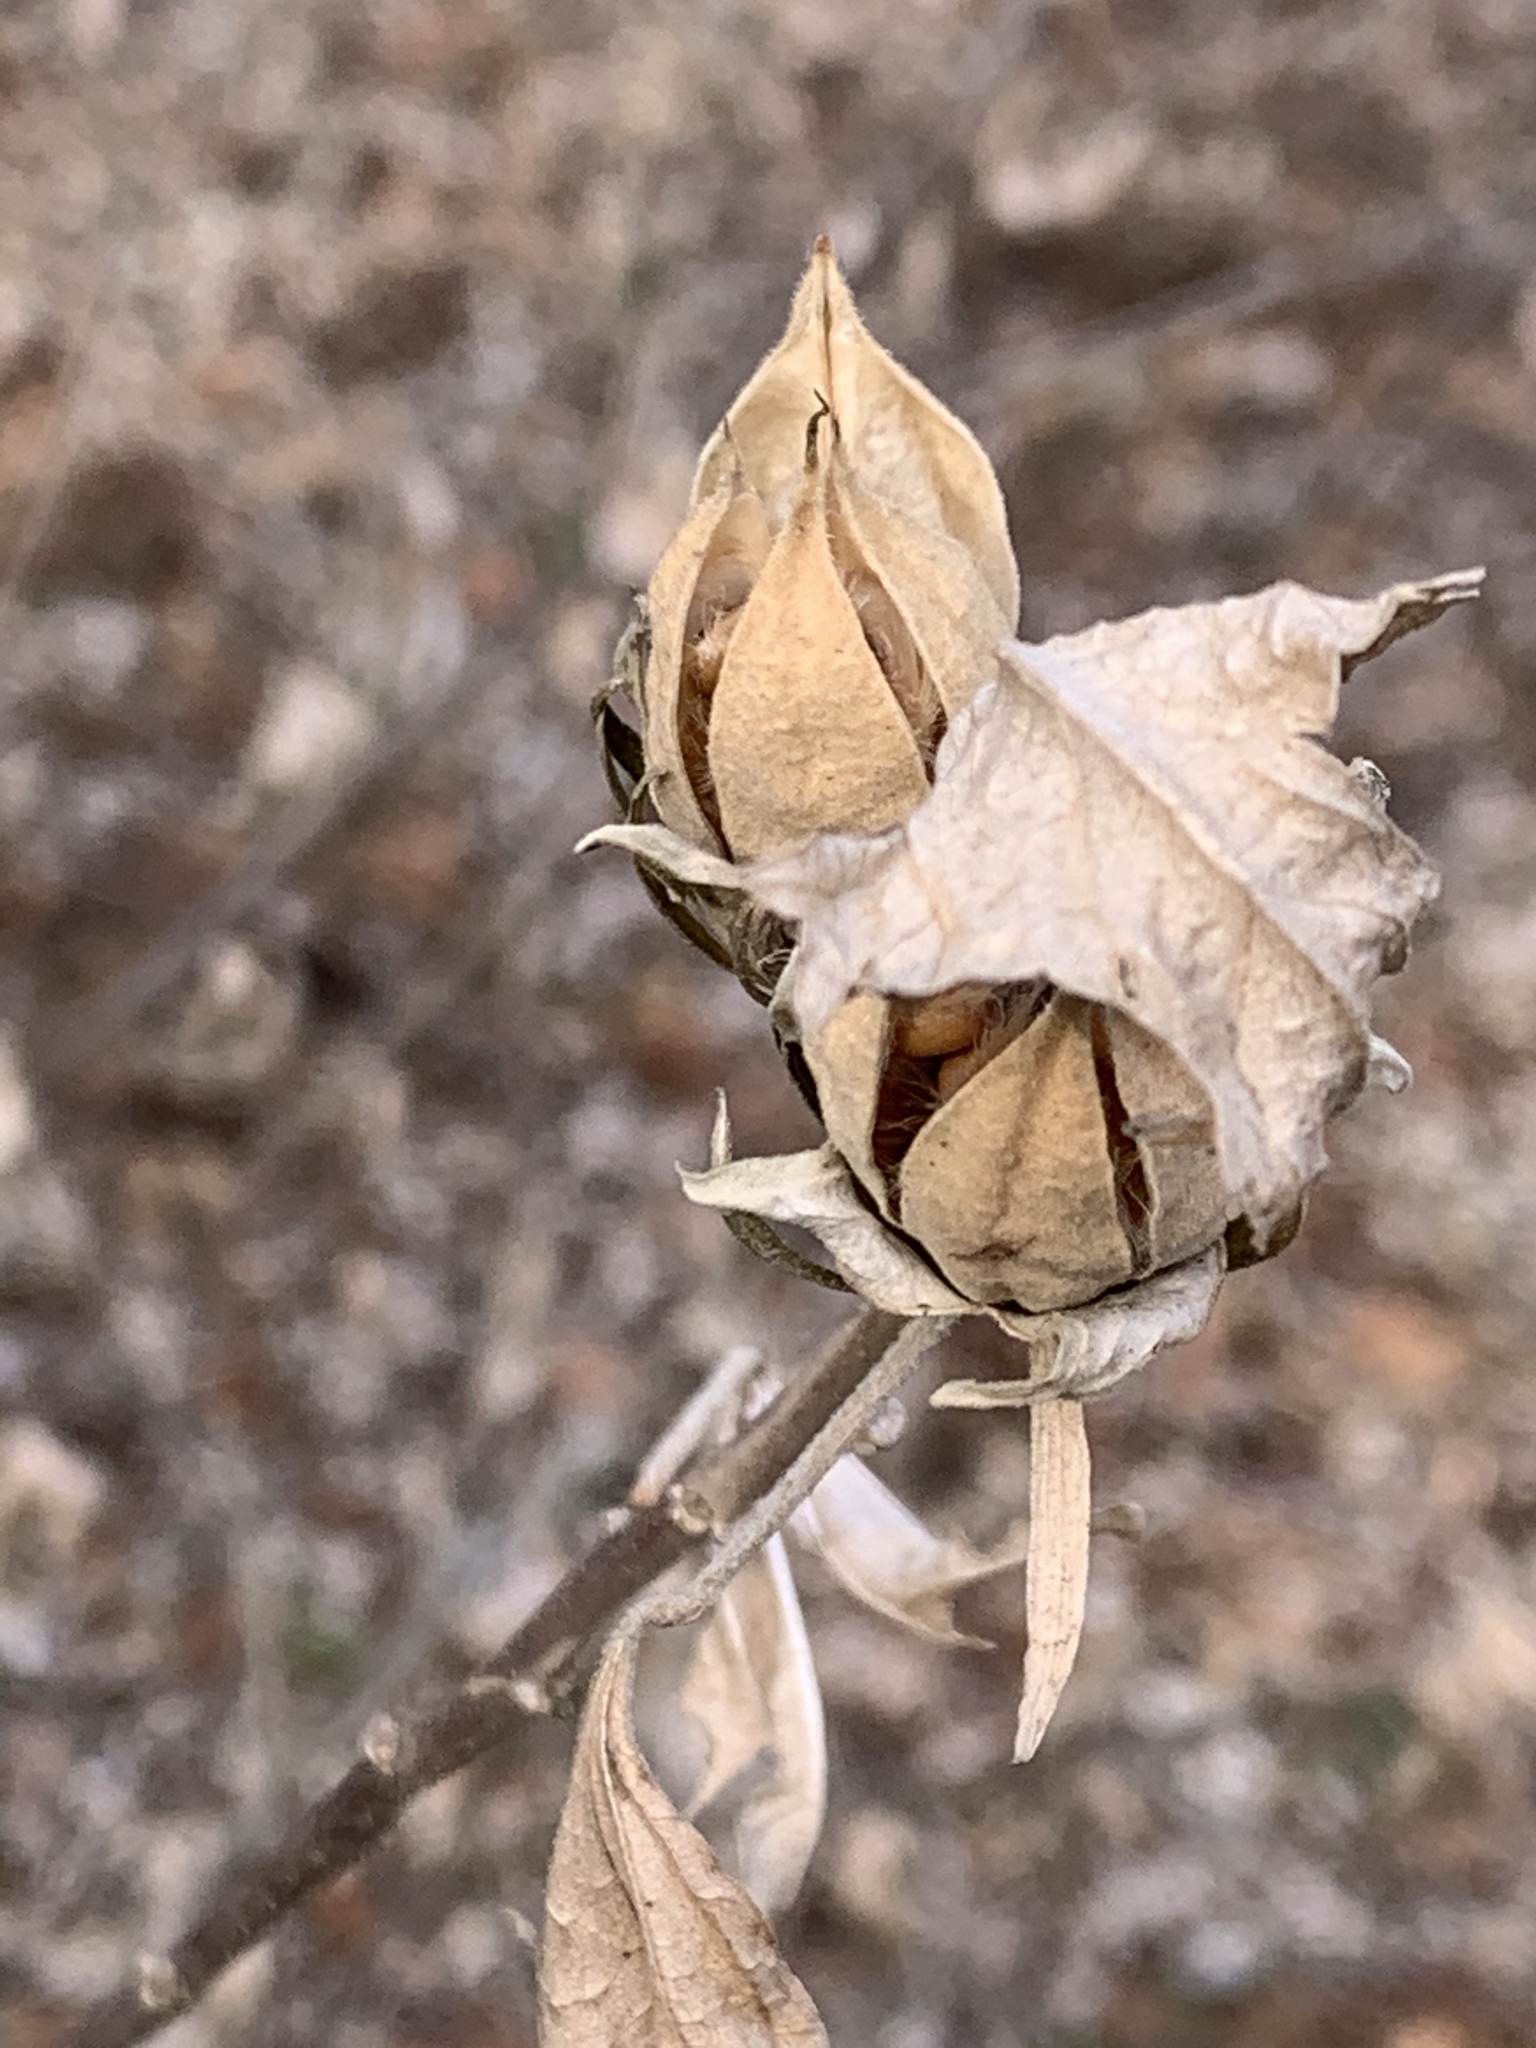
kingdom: Plantae
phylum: Tracheophyta
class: Magnoliopsida
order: Malvales
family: Malvaceae
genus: Hibiscus
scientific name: Hibiscus syriacus
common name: Syrian ketmia
